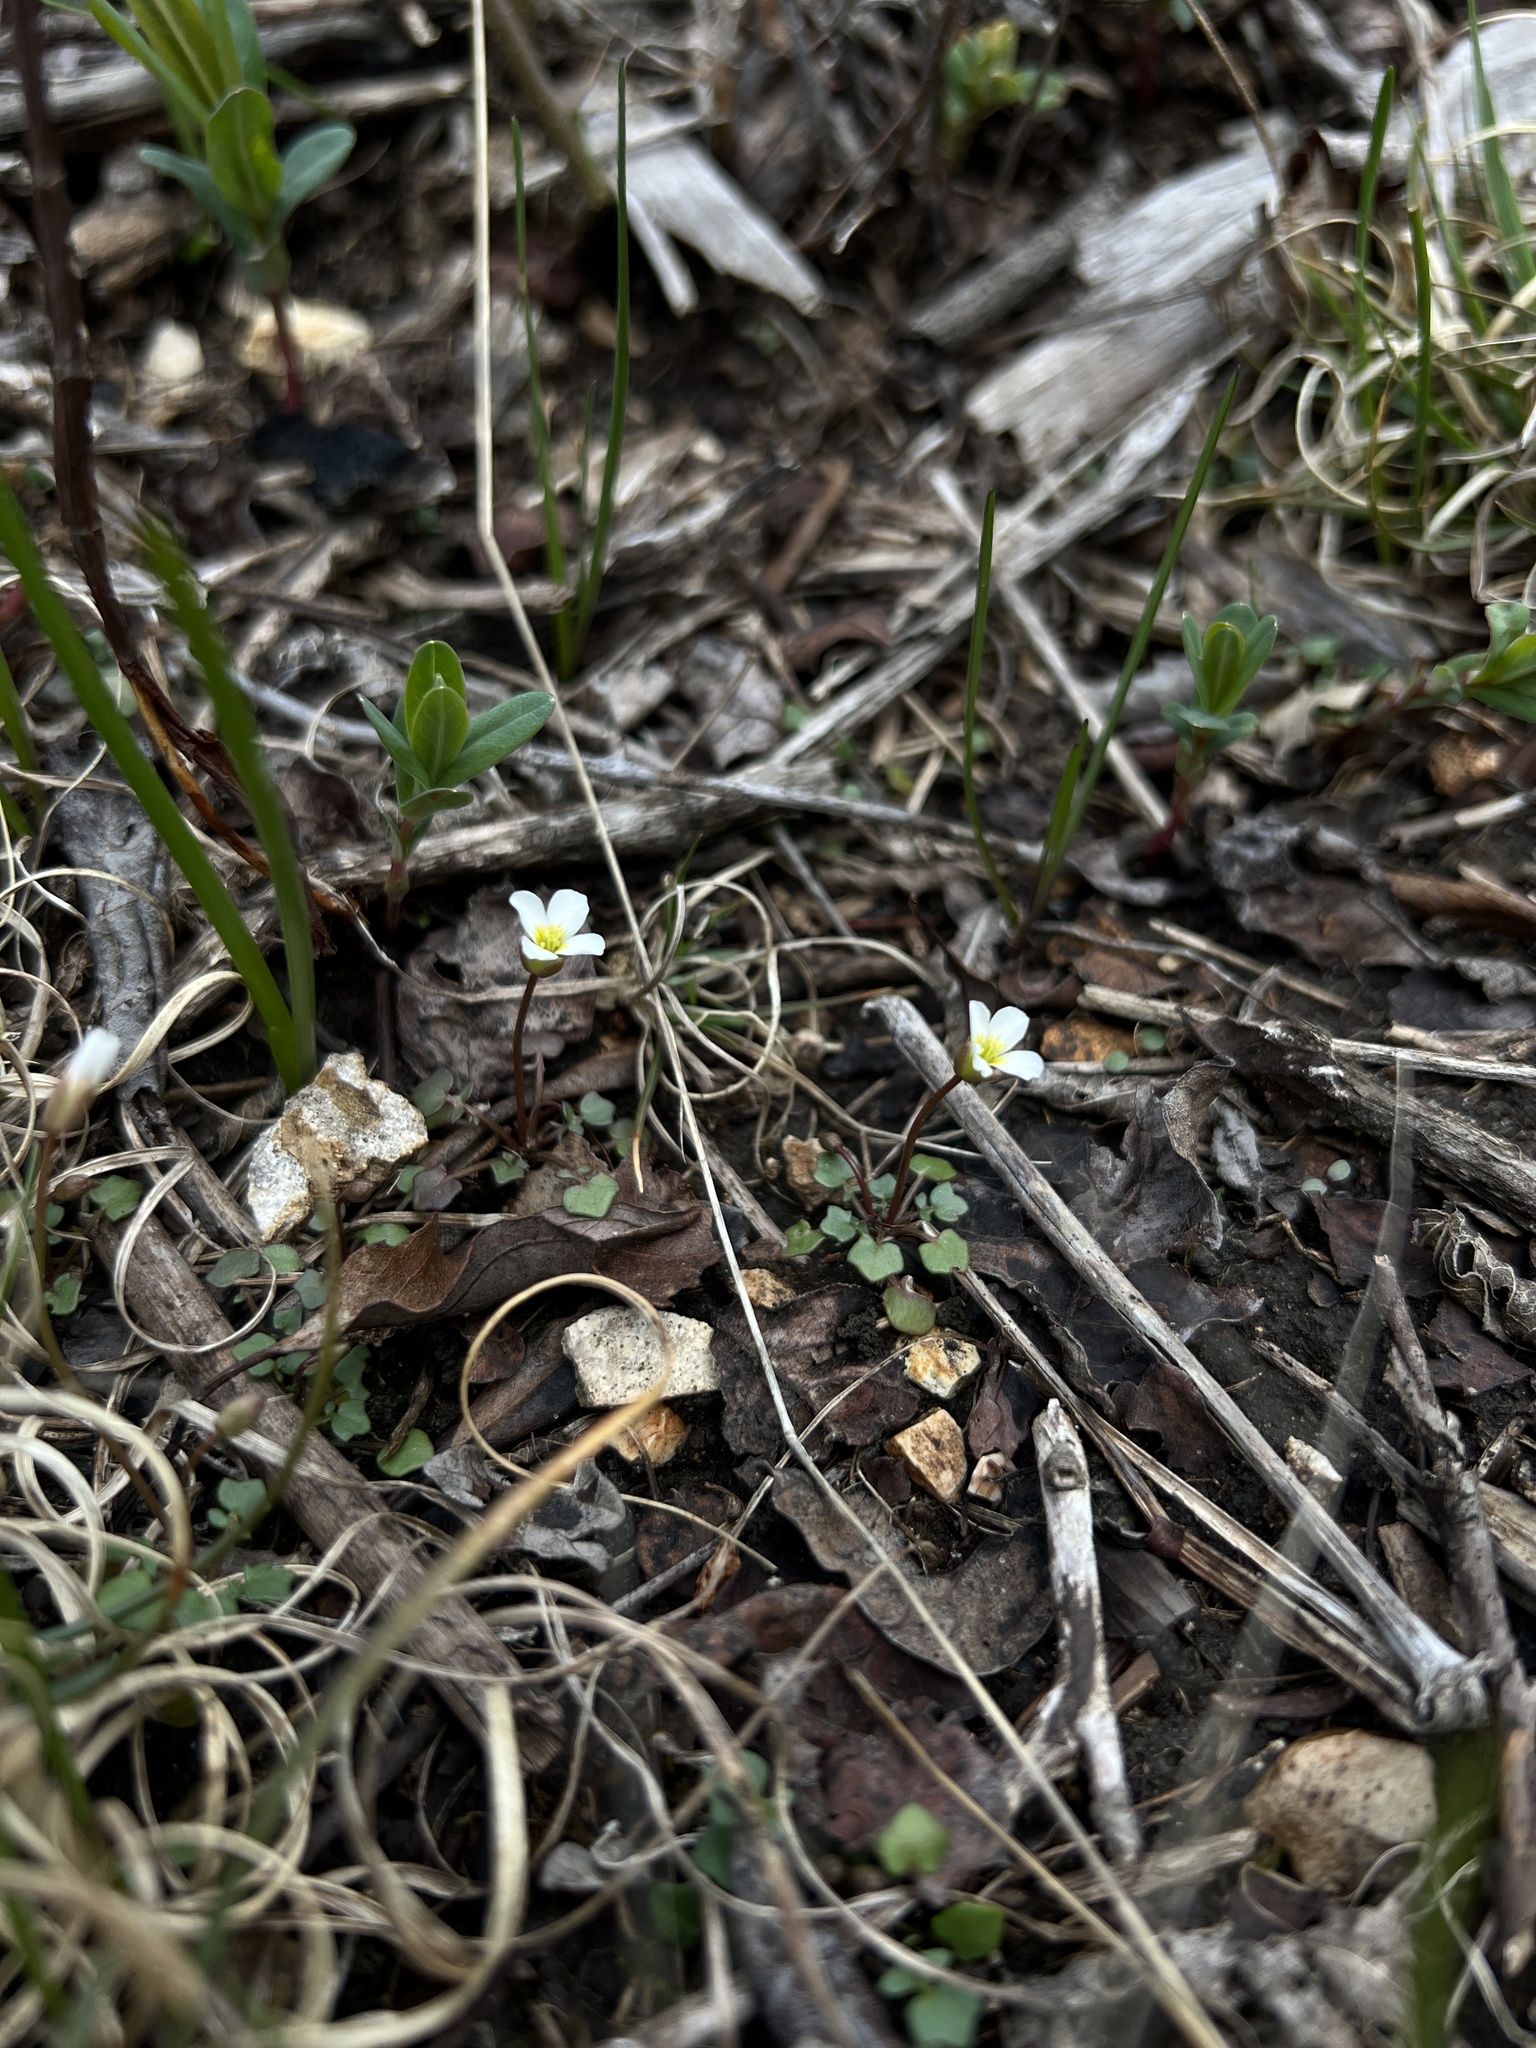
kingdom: Plantae
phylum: Tracheophyta
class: Magnoliopsida
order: Brassicales
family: Brassicaceae
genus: Leavenworthia
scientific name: Leavenworthia uniflora
